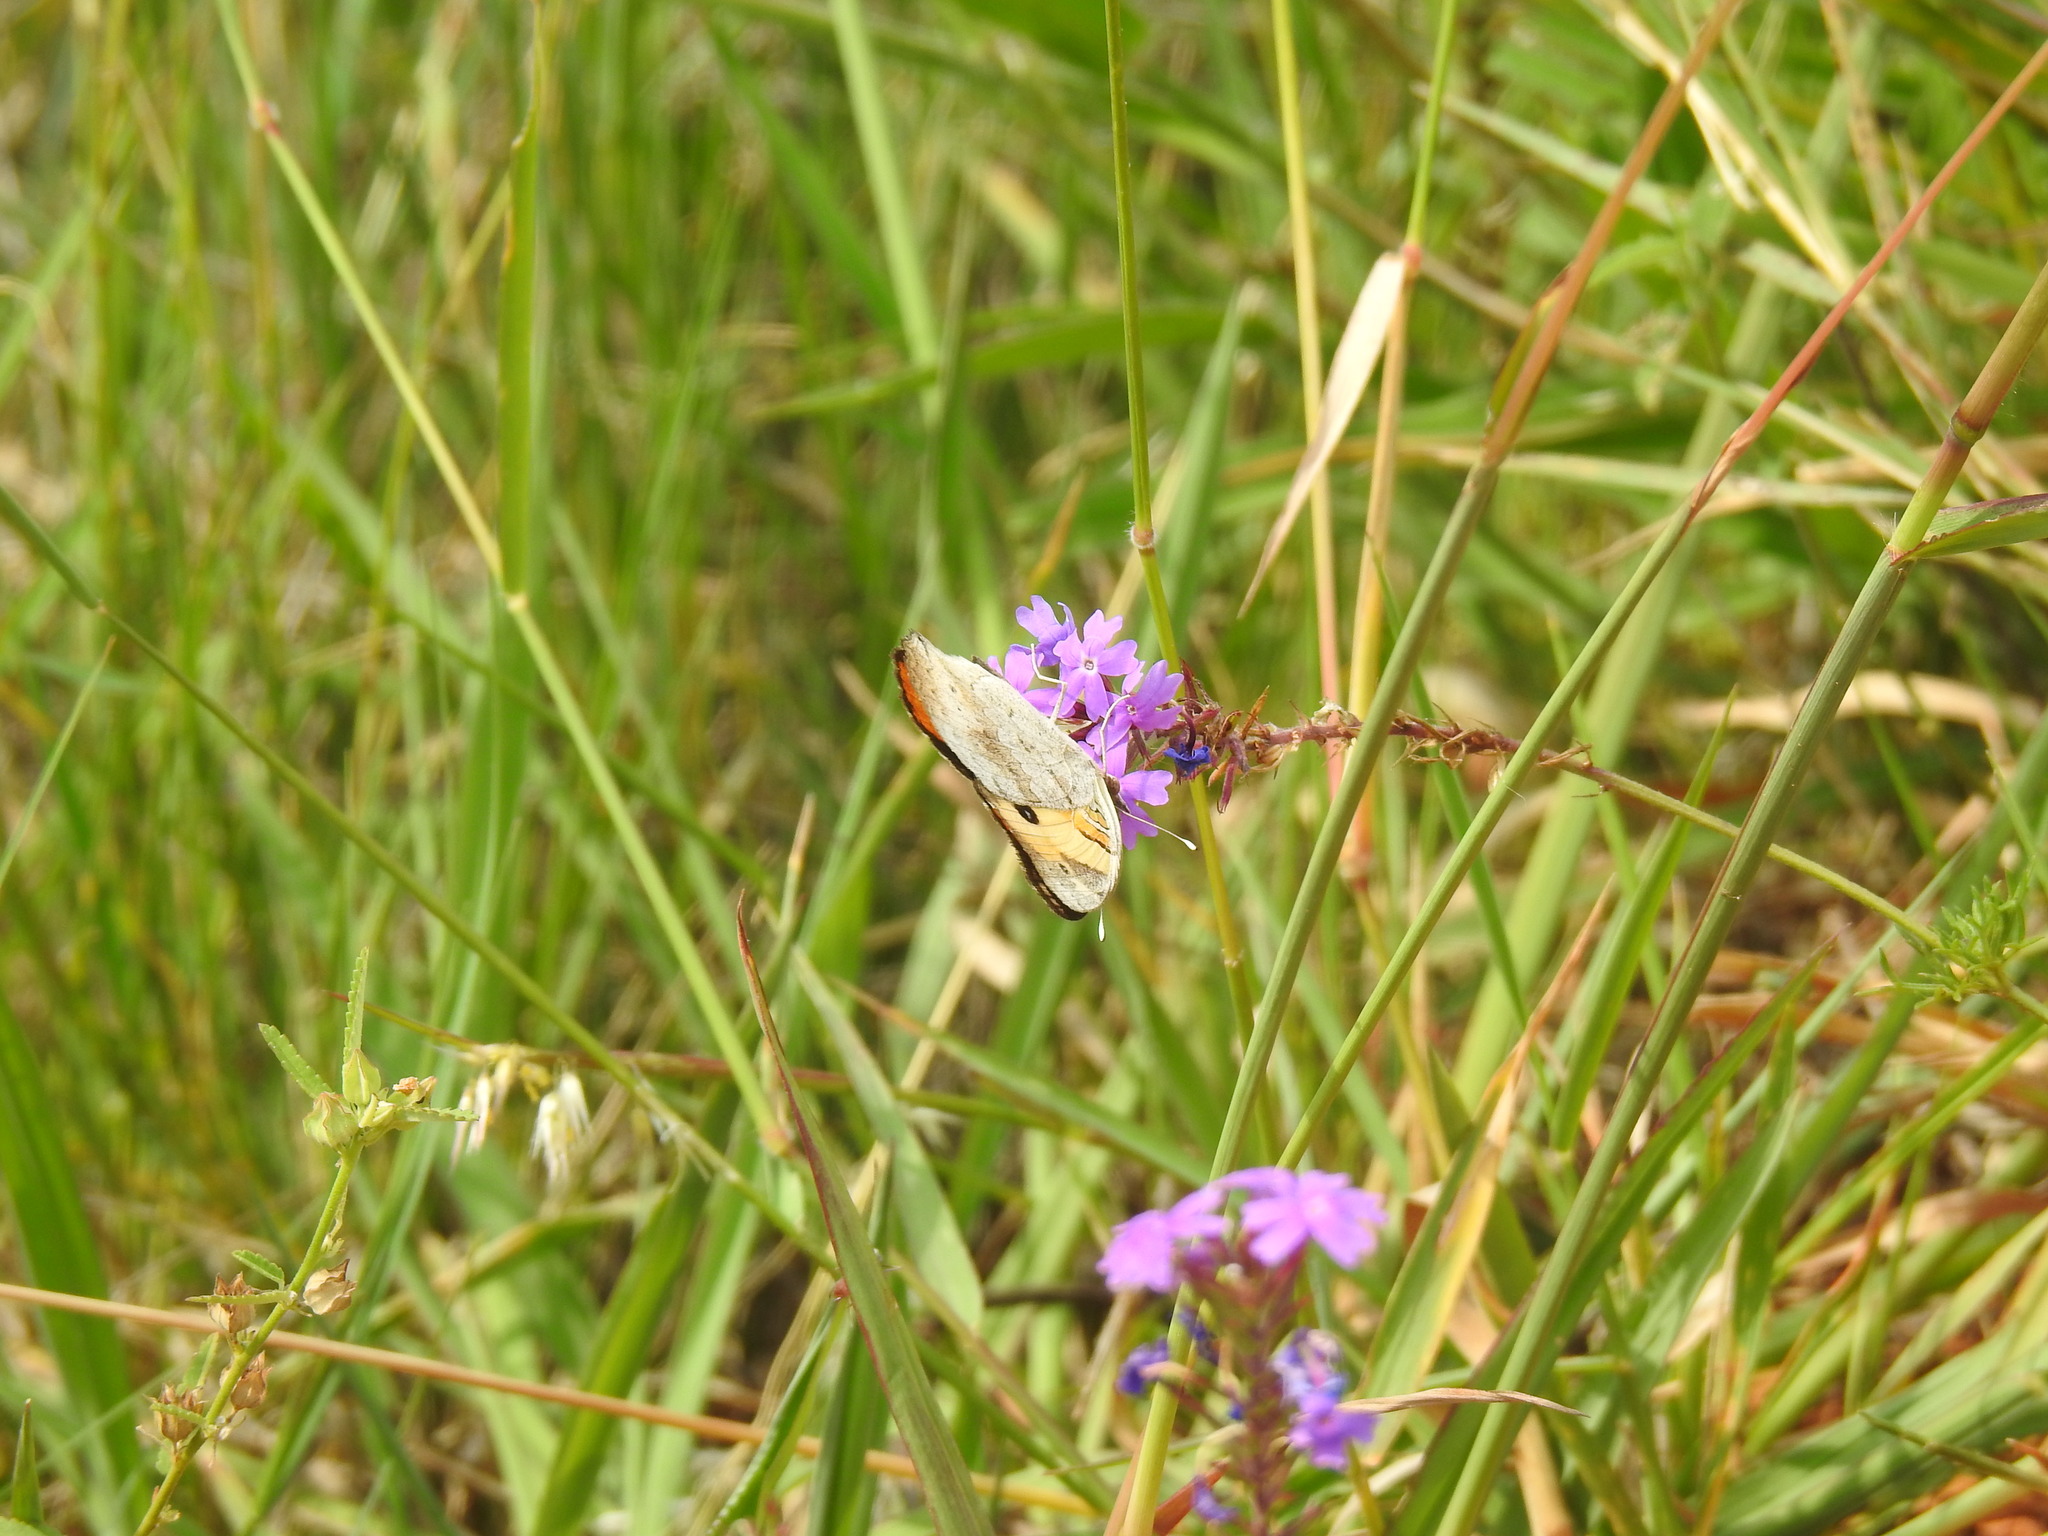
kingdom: Animalia
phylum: Arthropoda
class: Insecta
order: Lepidoptera
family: Nymphalidae
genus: Junonia
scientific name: Junonia hierta
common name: Yellow pansy
